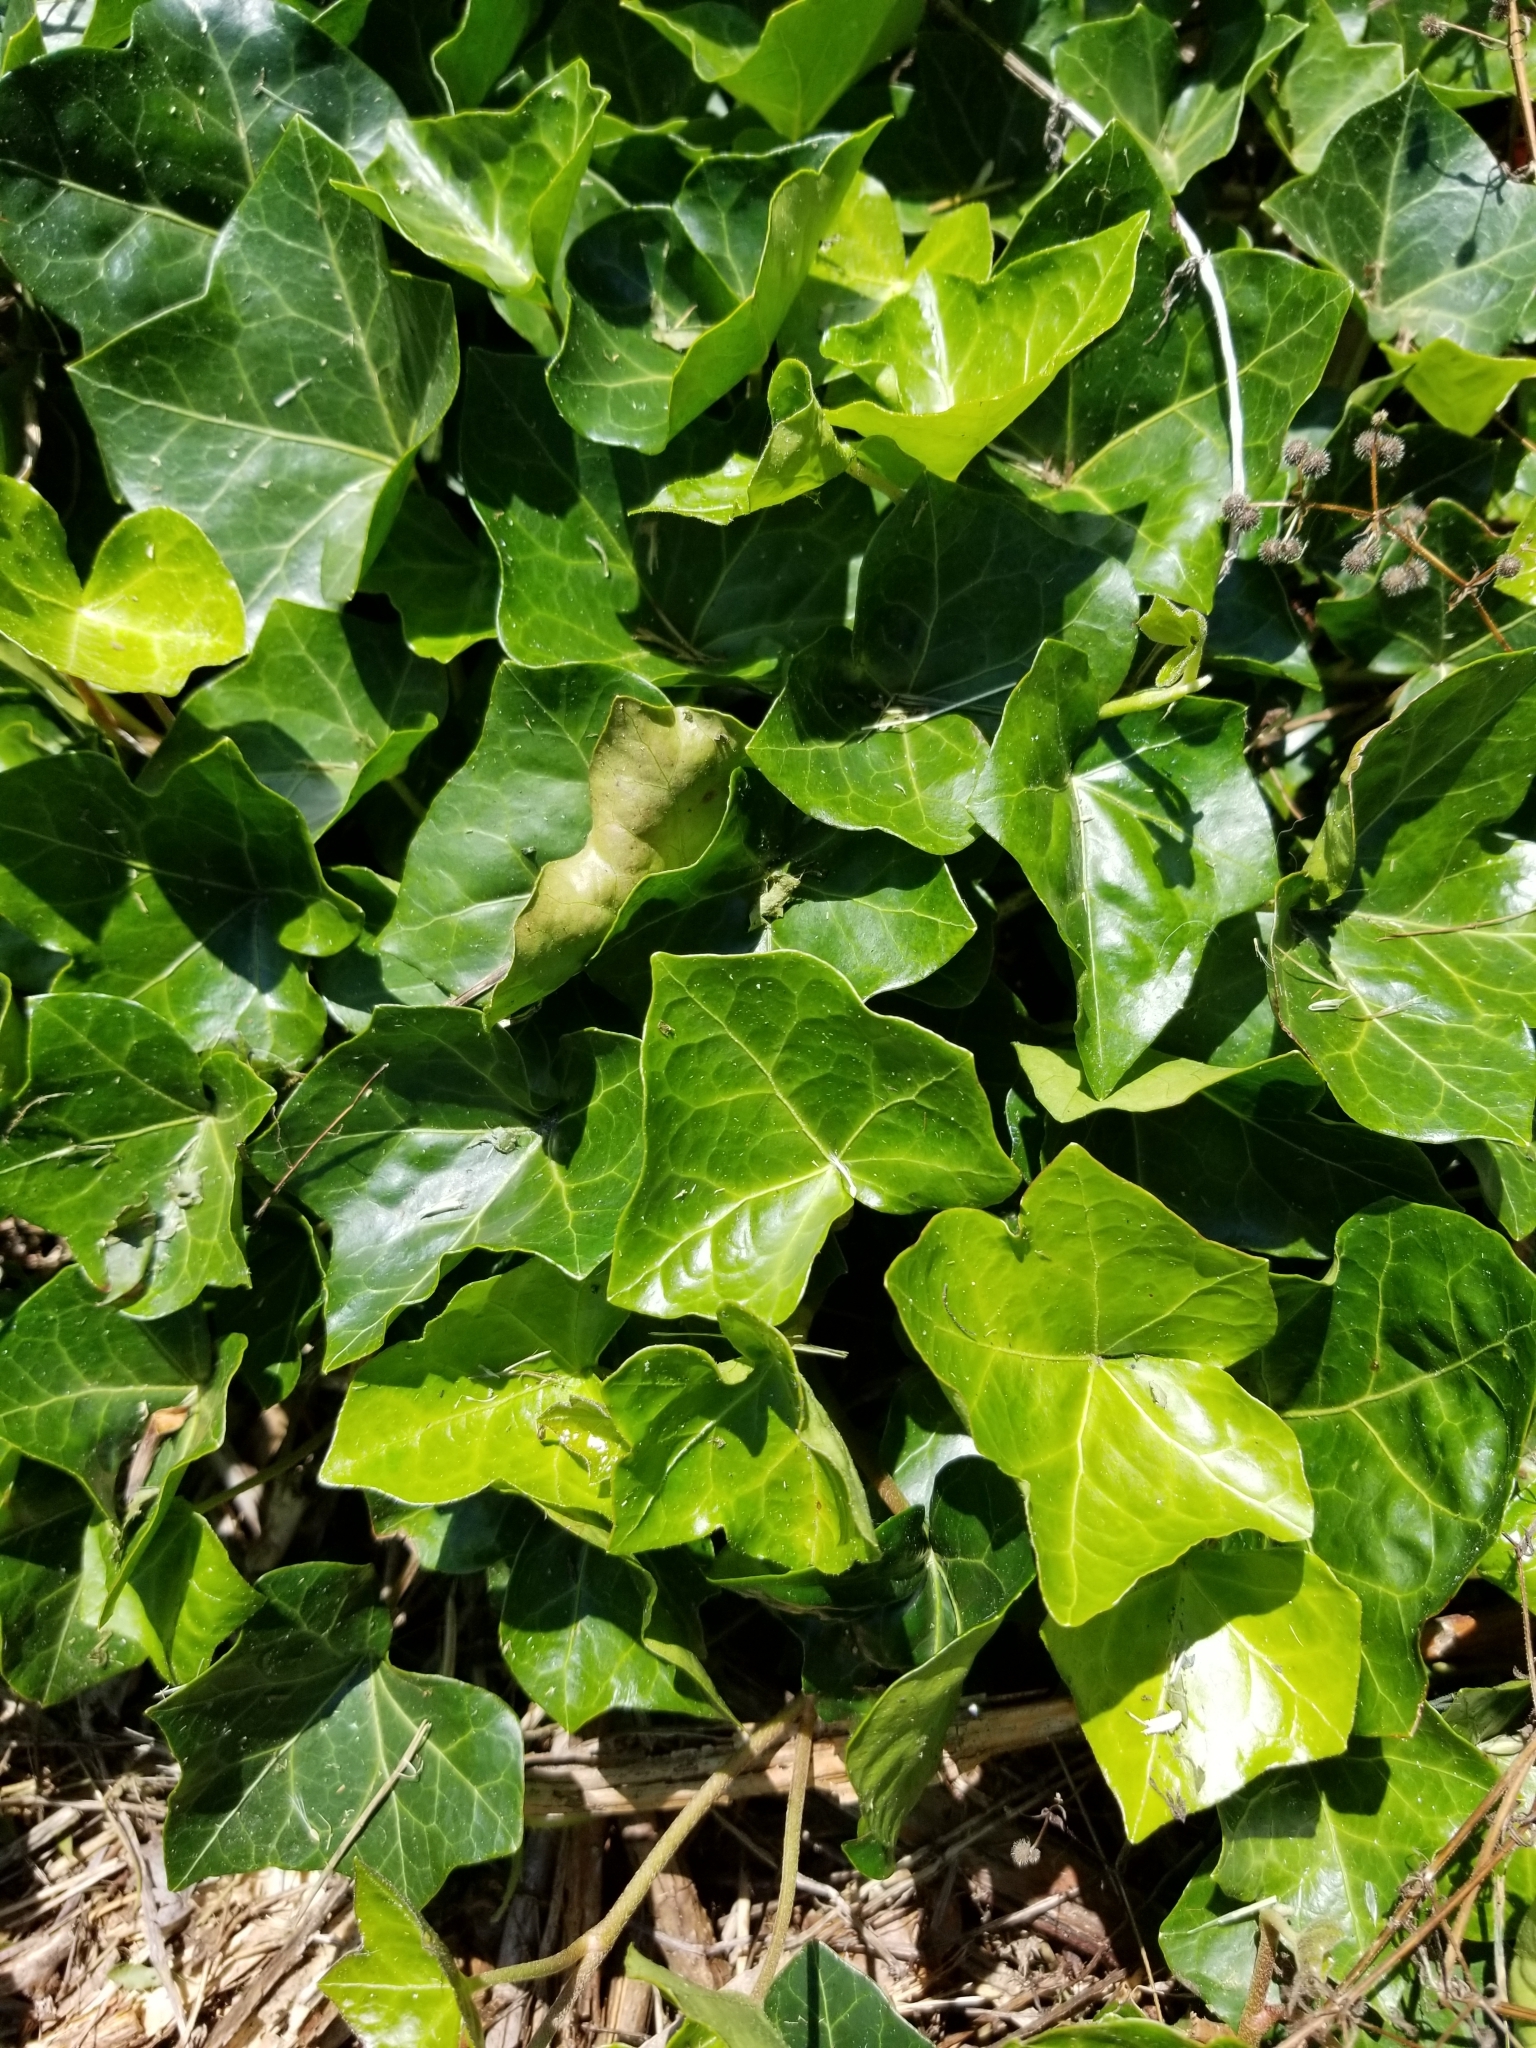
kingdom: Plantae
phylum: Tracheophyta
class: Magnoliopsida
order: Apiales
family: Araliaceae
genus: Hedera
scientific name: Hedera helix
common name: Ivy
